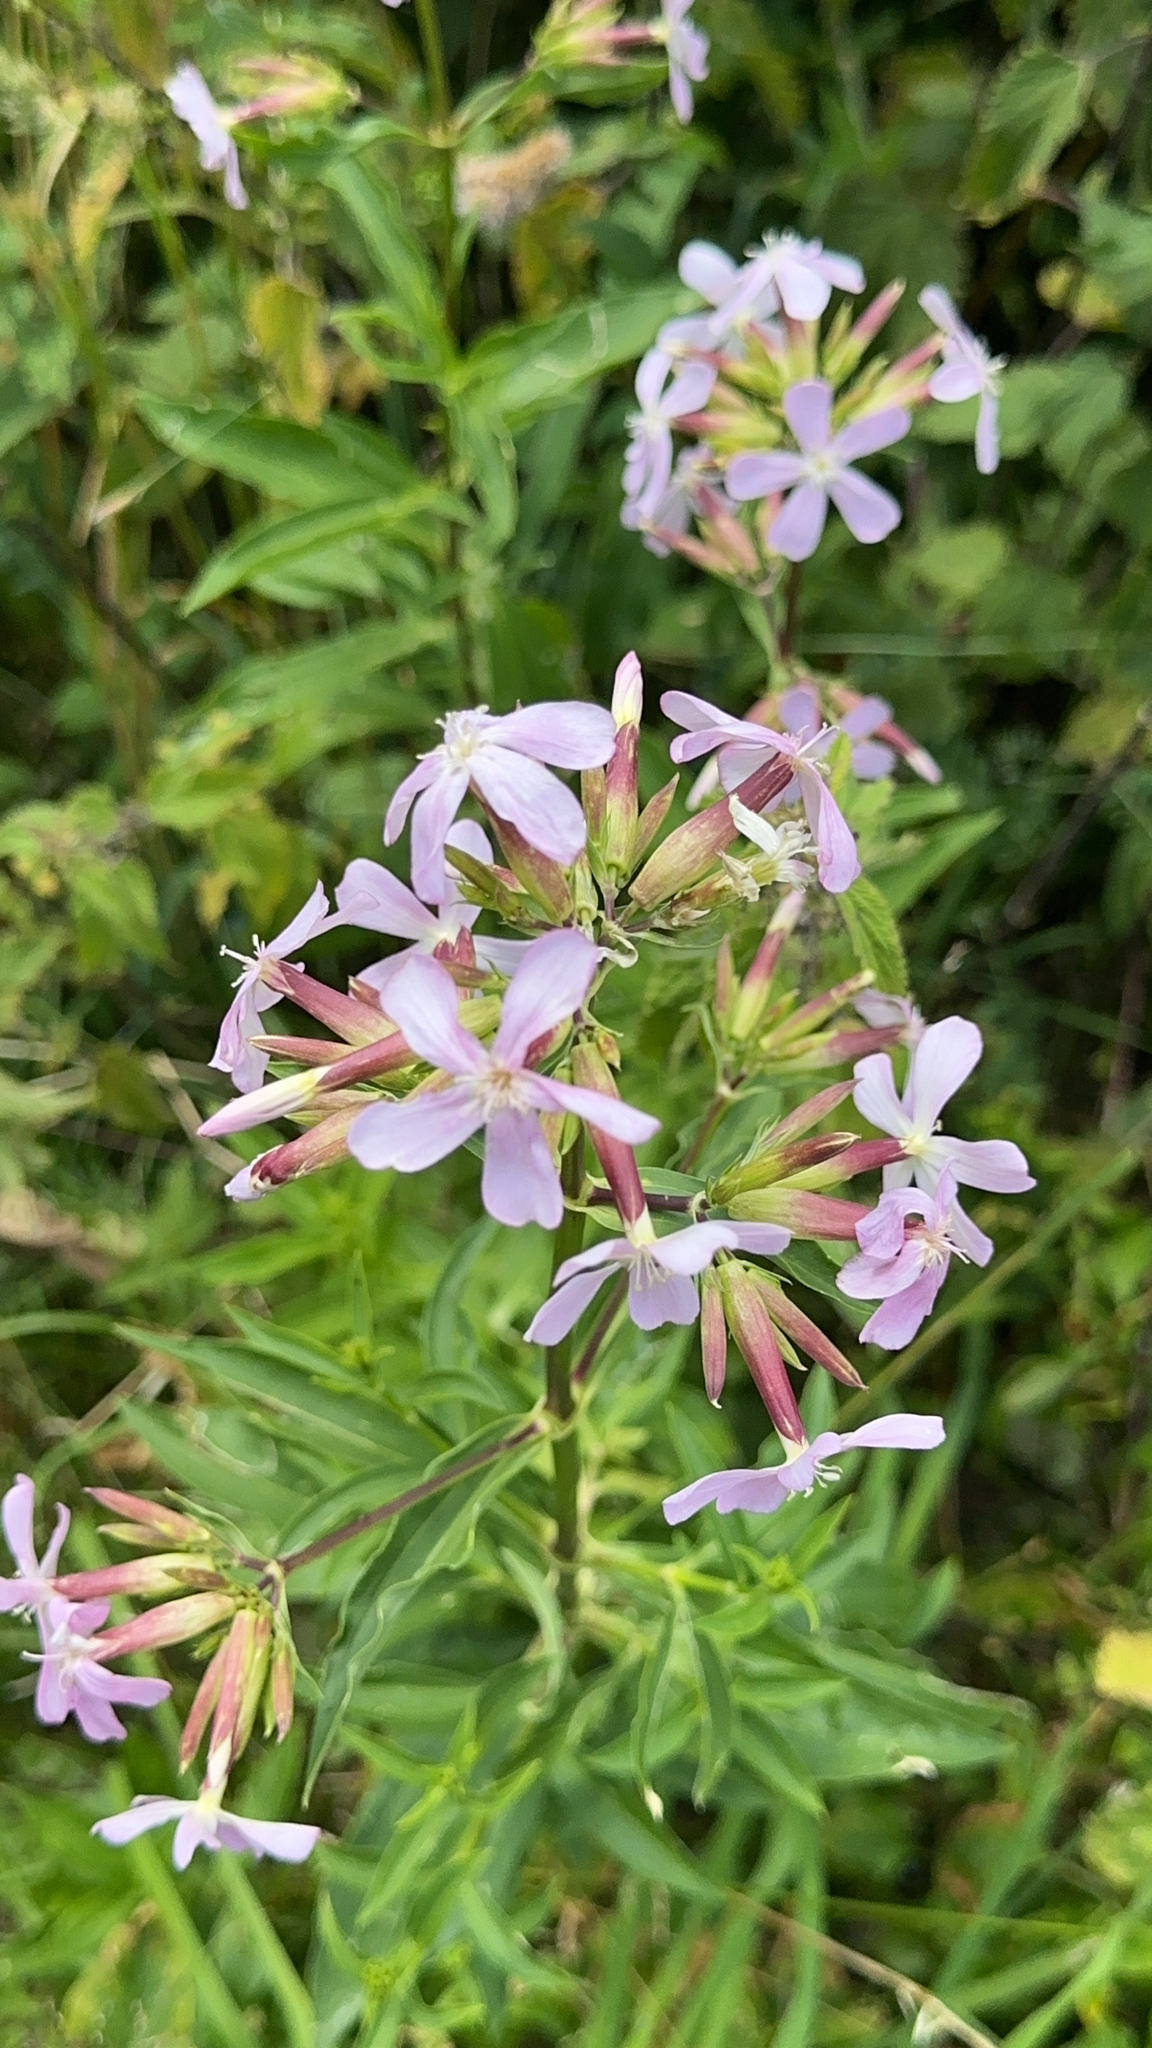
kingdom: Plantae
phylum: Tracheophyta
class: Magnoliopsida
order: Caryophyllales
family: Caryophyllaceae
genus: Saponaria
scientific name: Saponaria officinalis
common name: Soapwort
